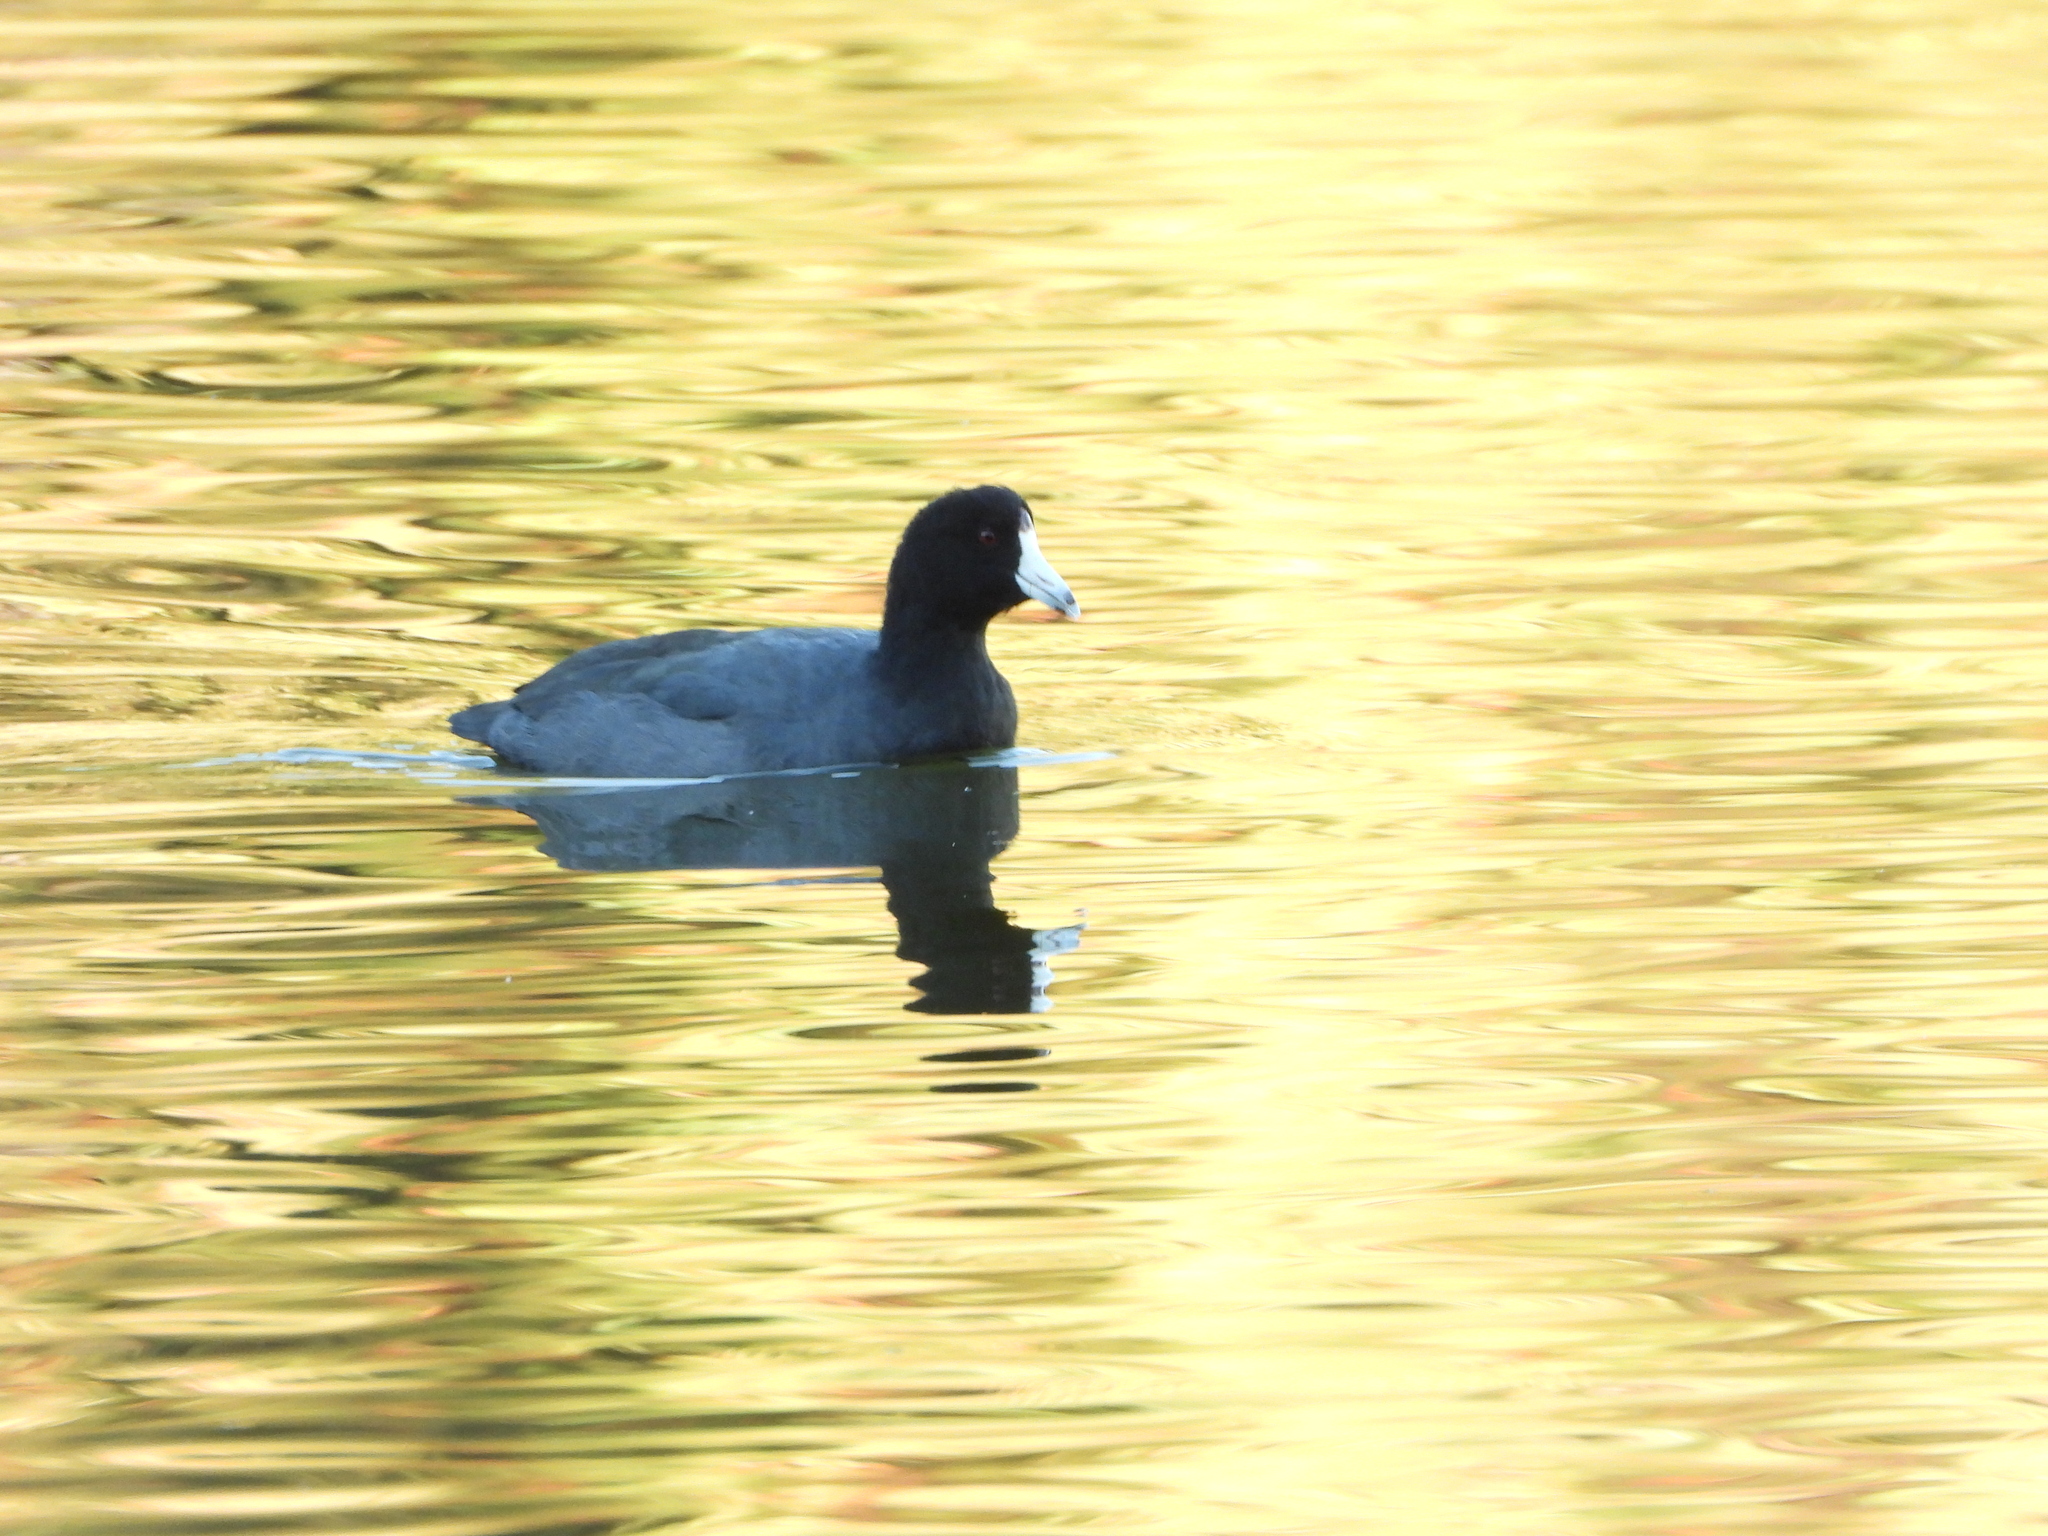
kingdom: Animalia
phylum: Chordata
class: Aves
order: Gruiformes
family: Rallidae
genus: Fulica
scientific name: Fulica americana
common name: American coot
